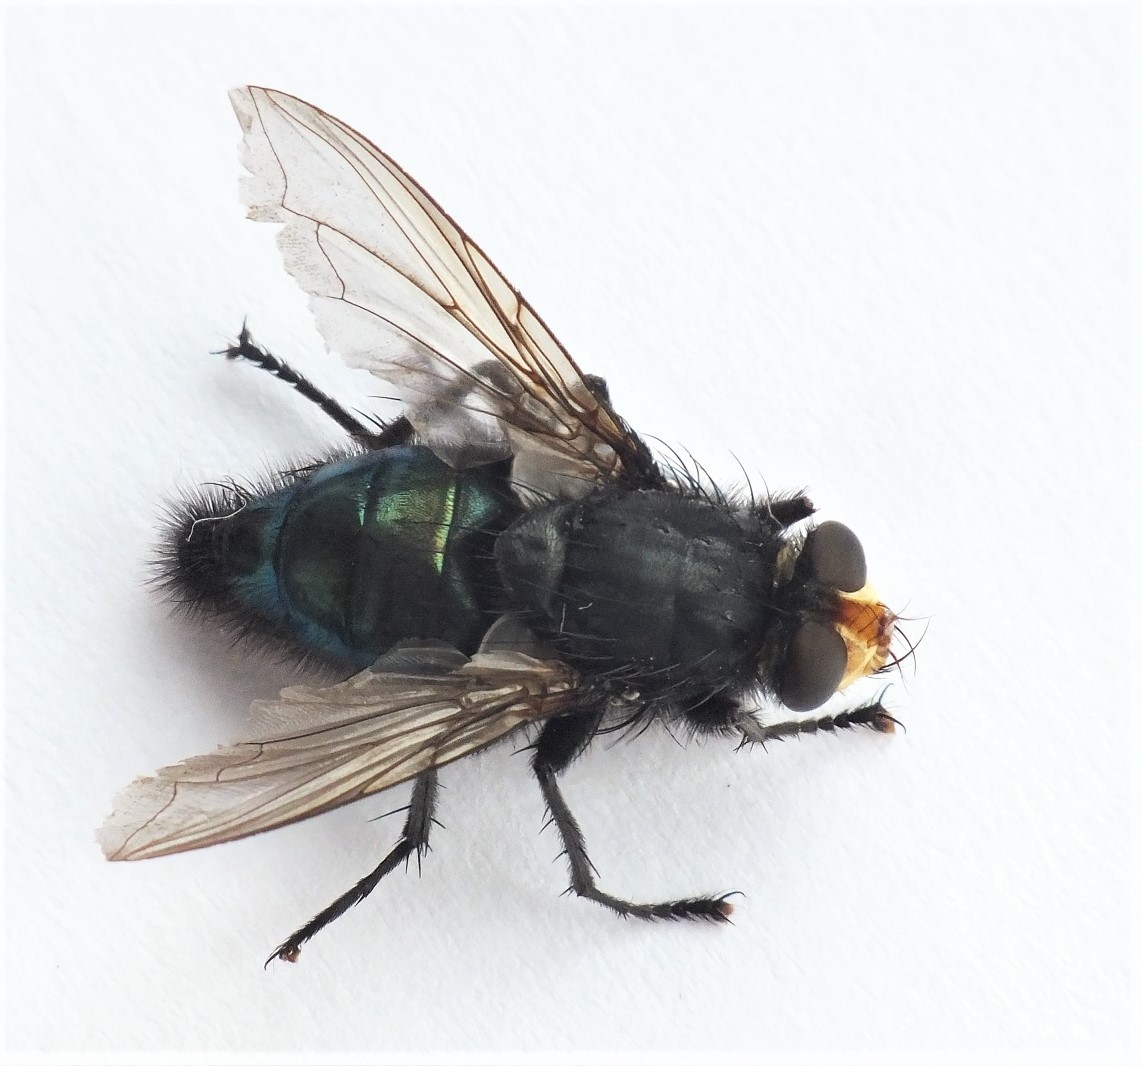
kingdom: Animalia
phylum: Arthropoda
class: Insecta
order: Diptera
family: Calliphoridae
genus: Cynomya
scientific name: Cynomya mortuorum
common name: Bluebottle blow fly
